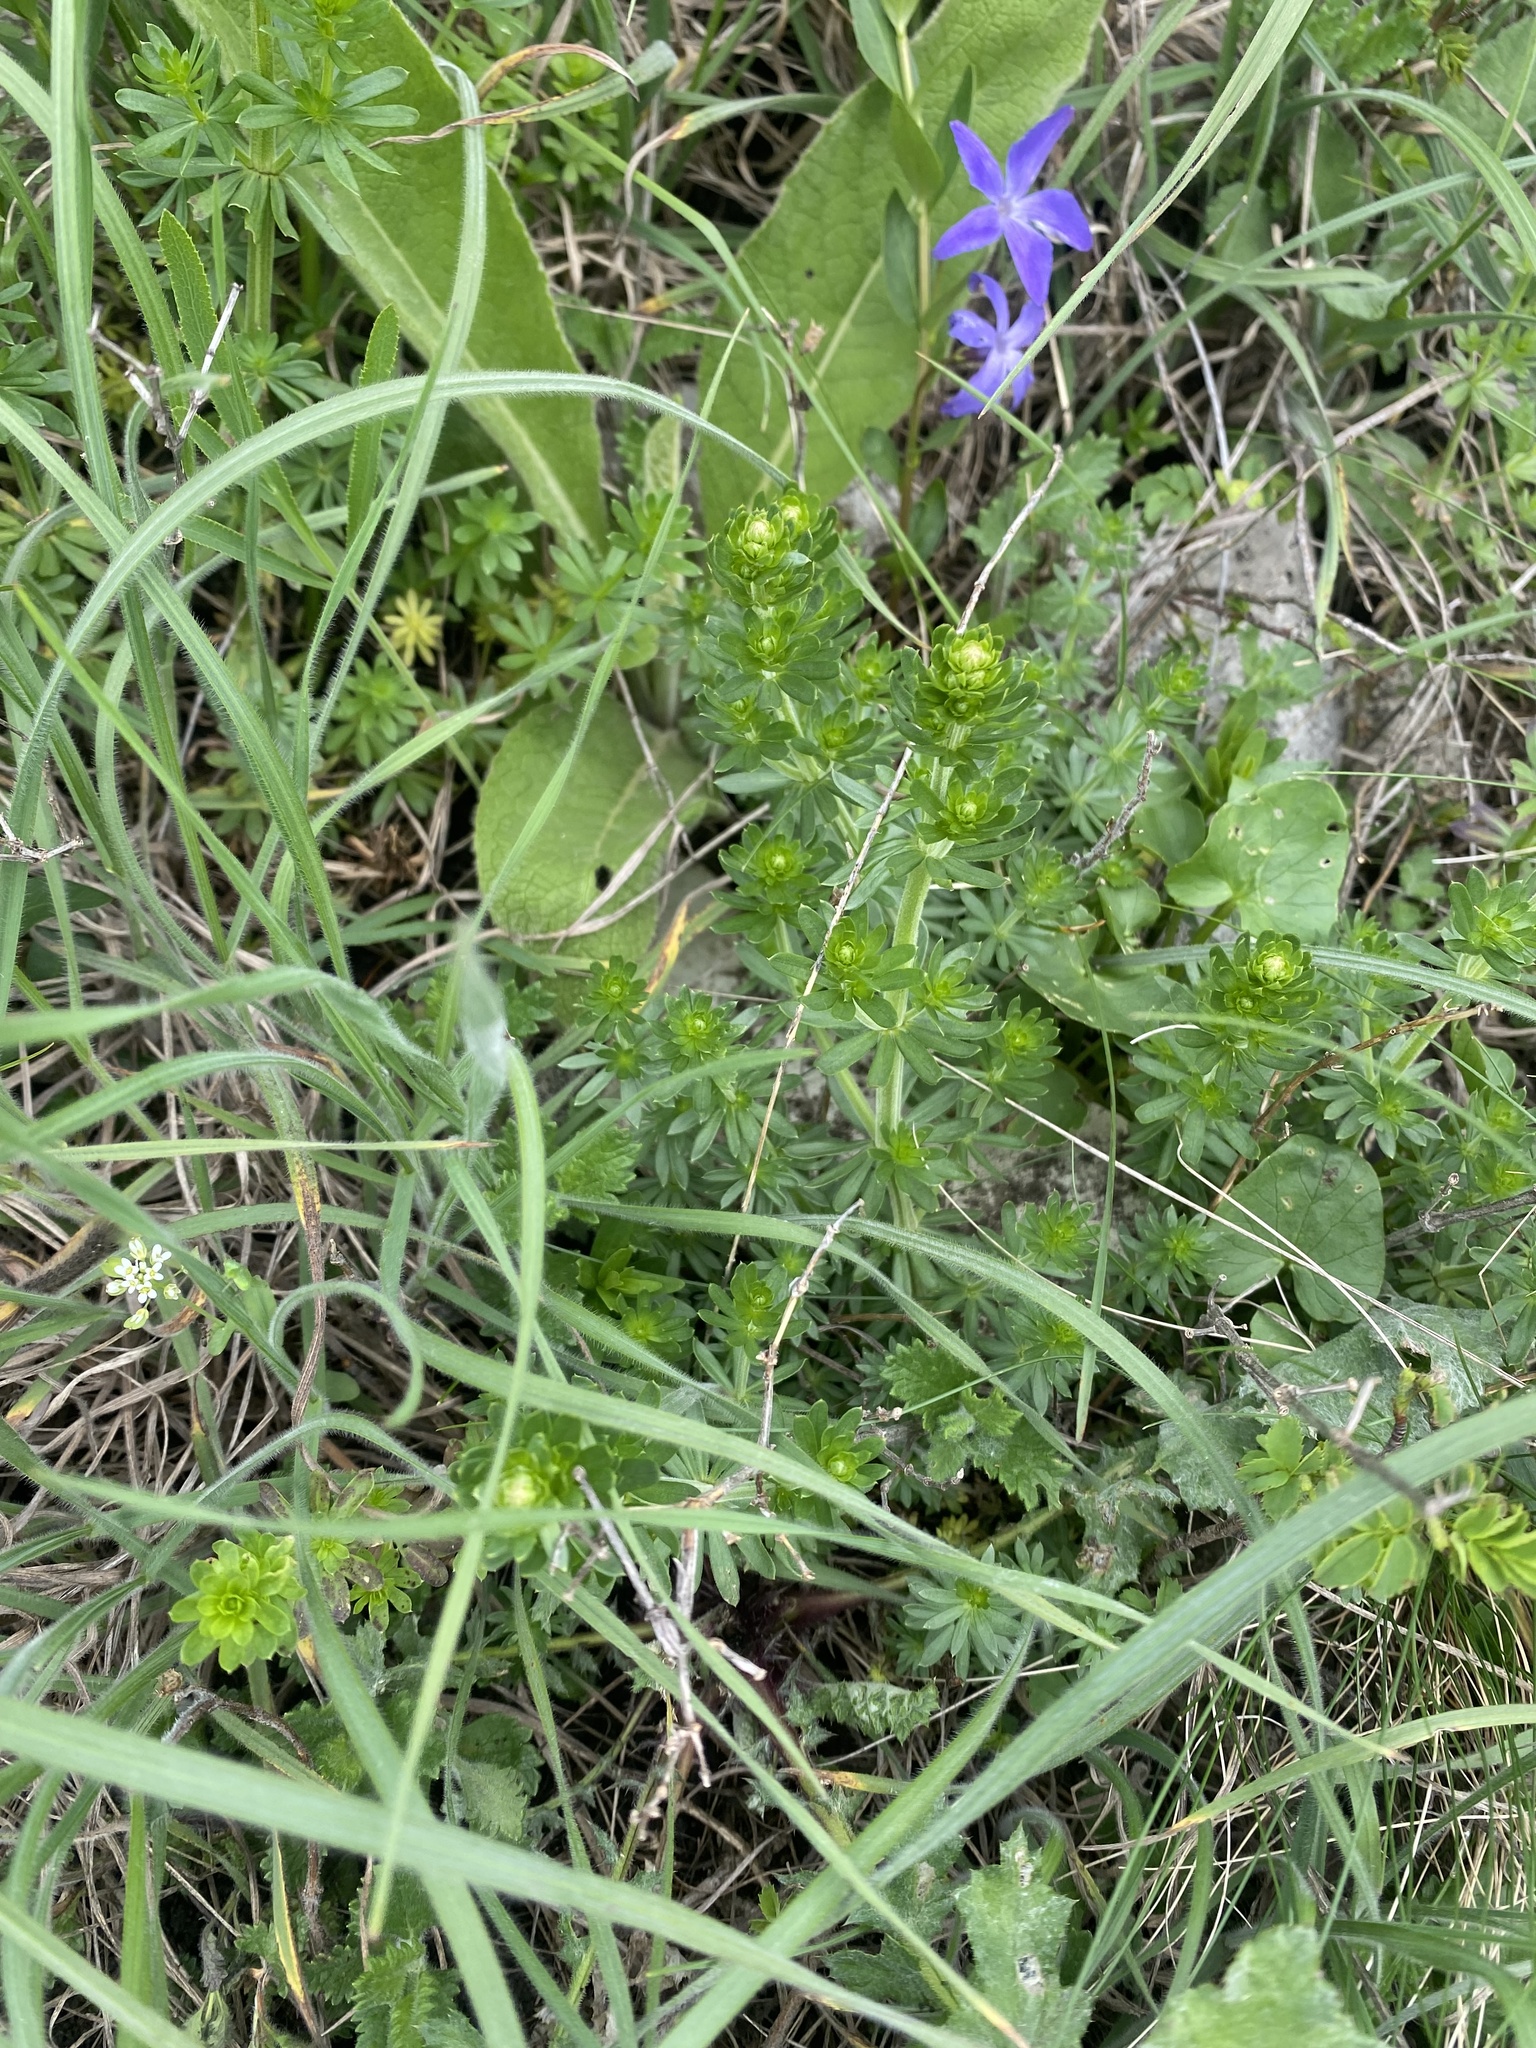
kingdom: Plantae
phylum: Tracheophyta
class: Magnoliopsida
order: Gentianales
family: Rubiaceae
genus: Galium
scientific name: Galium mollugo
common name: Hedge bedstraw
